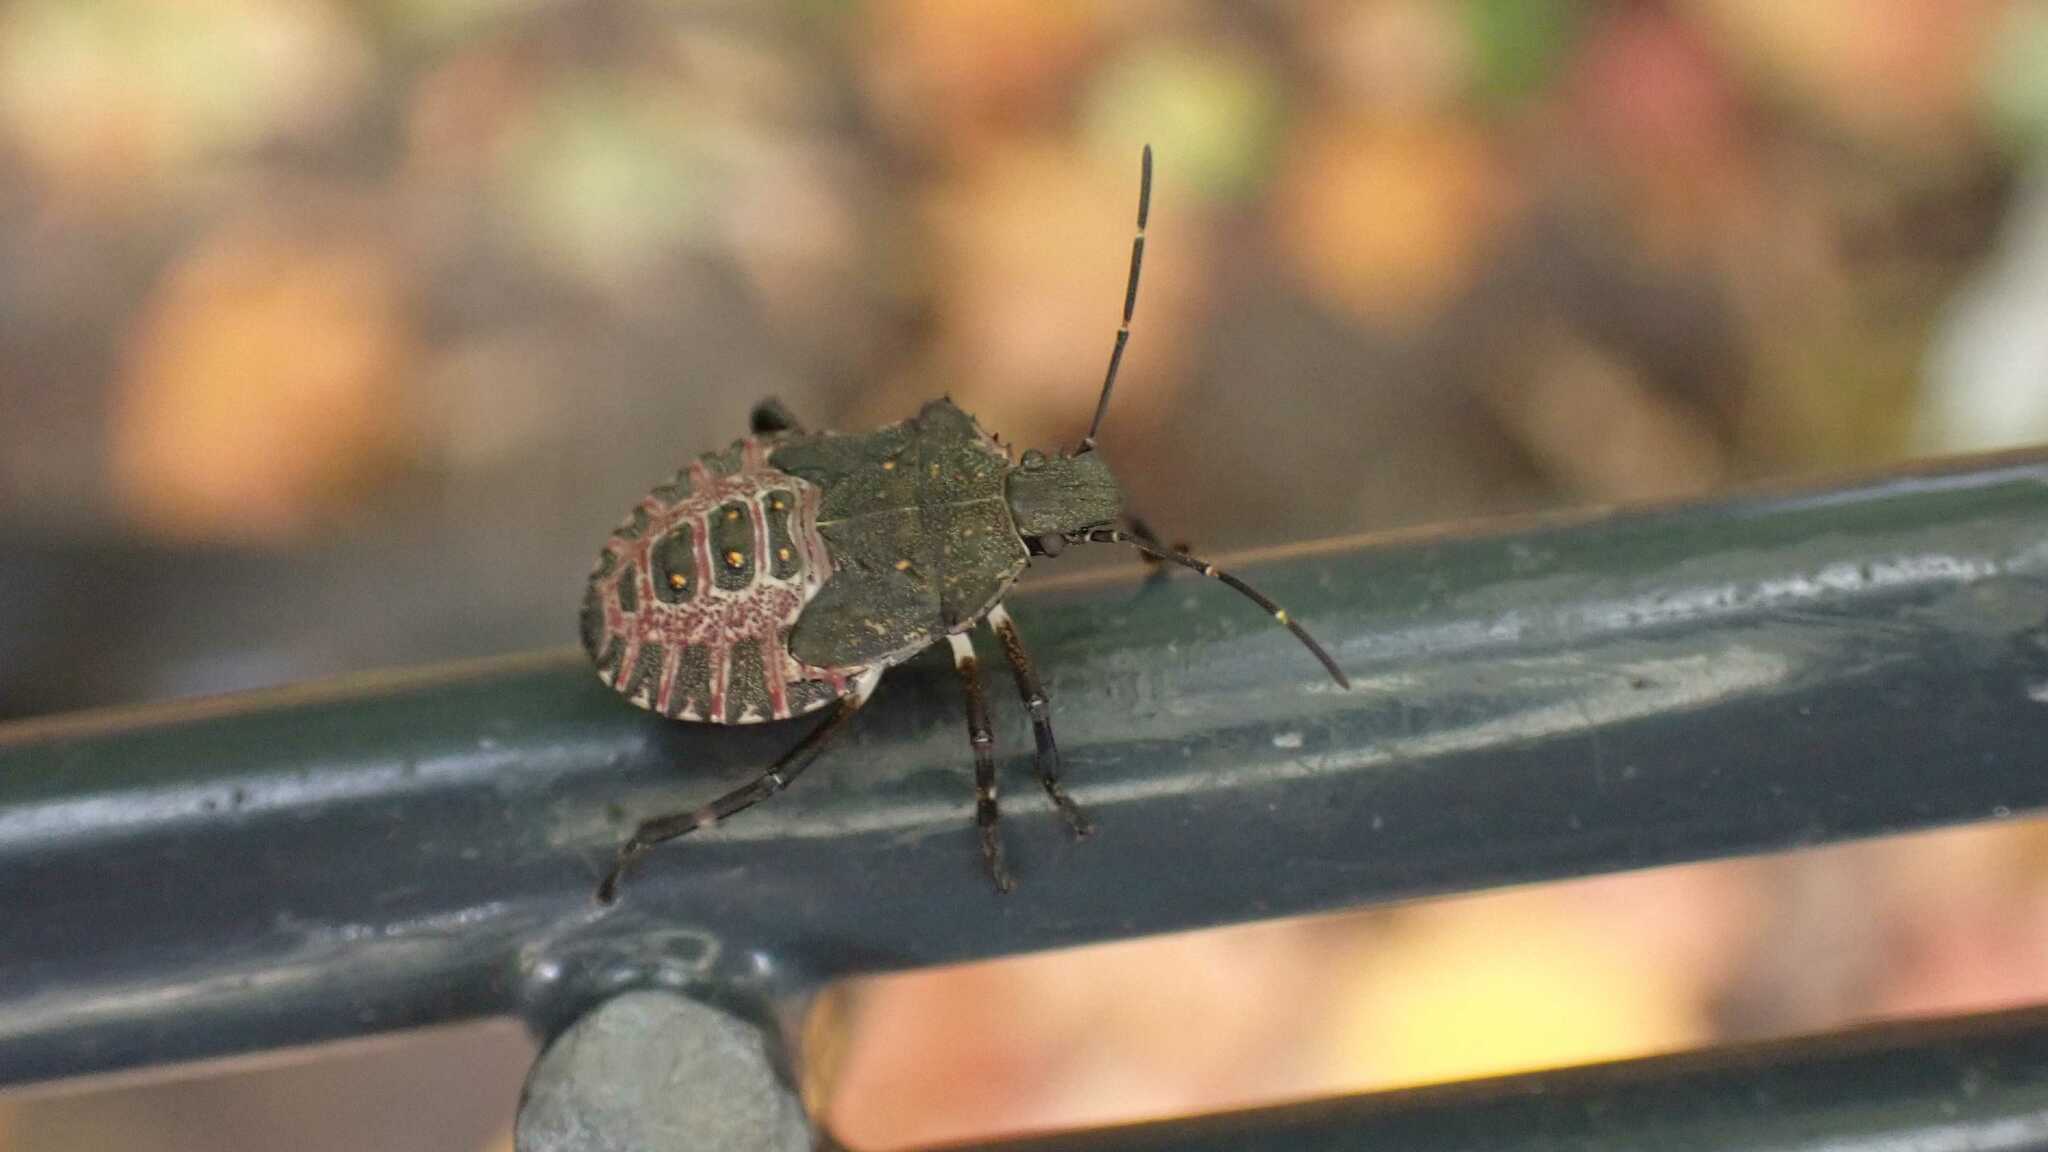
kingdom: Animalia
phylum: Arthropoda
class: Insecta
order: Hemiptera
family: Pentatomidae
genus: Halyomorpha
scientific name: Halyomorpha halys
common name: Brown marmorated stink bug
